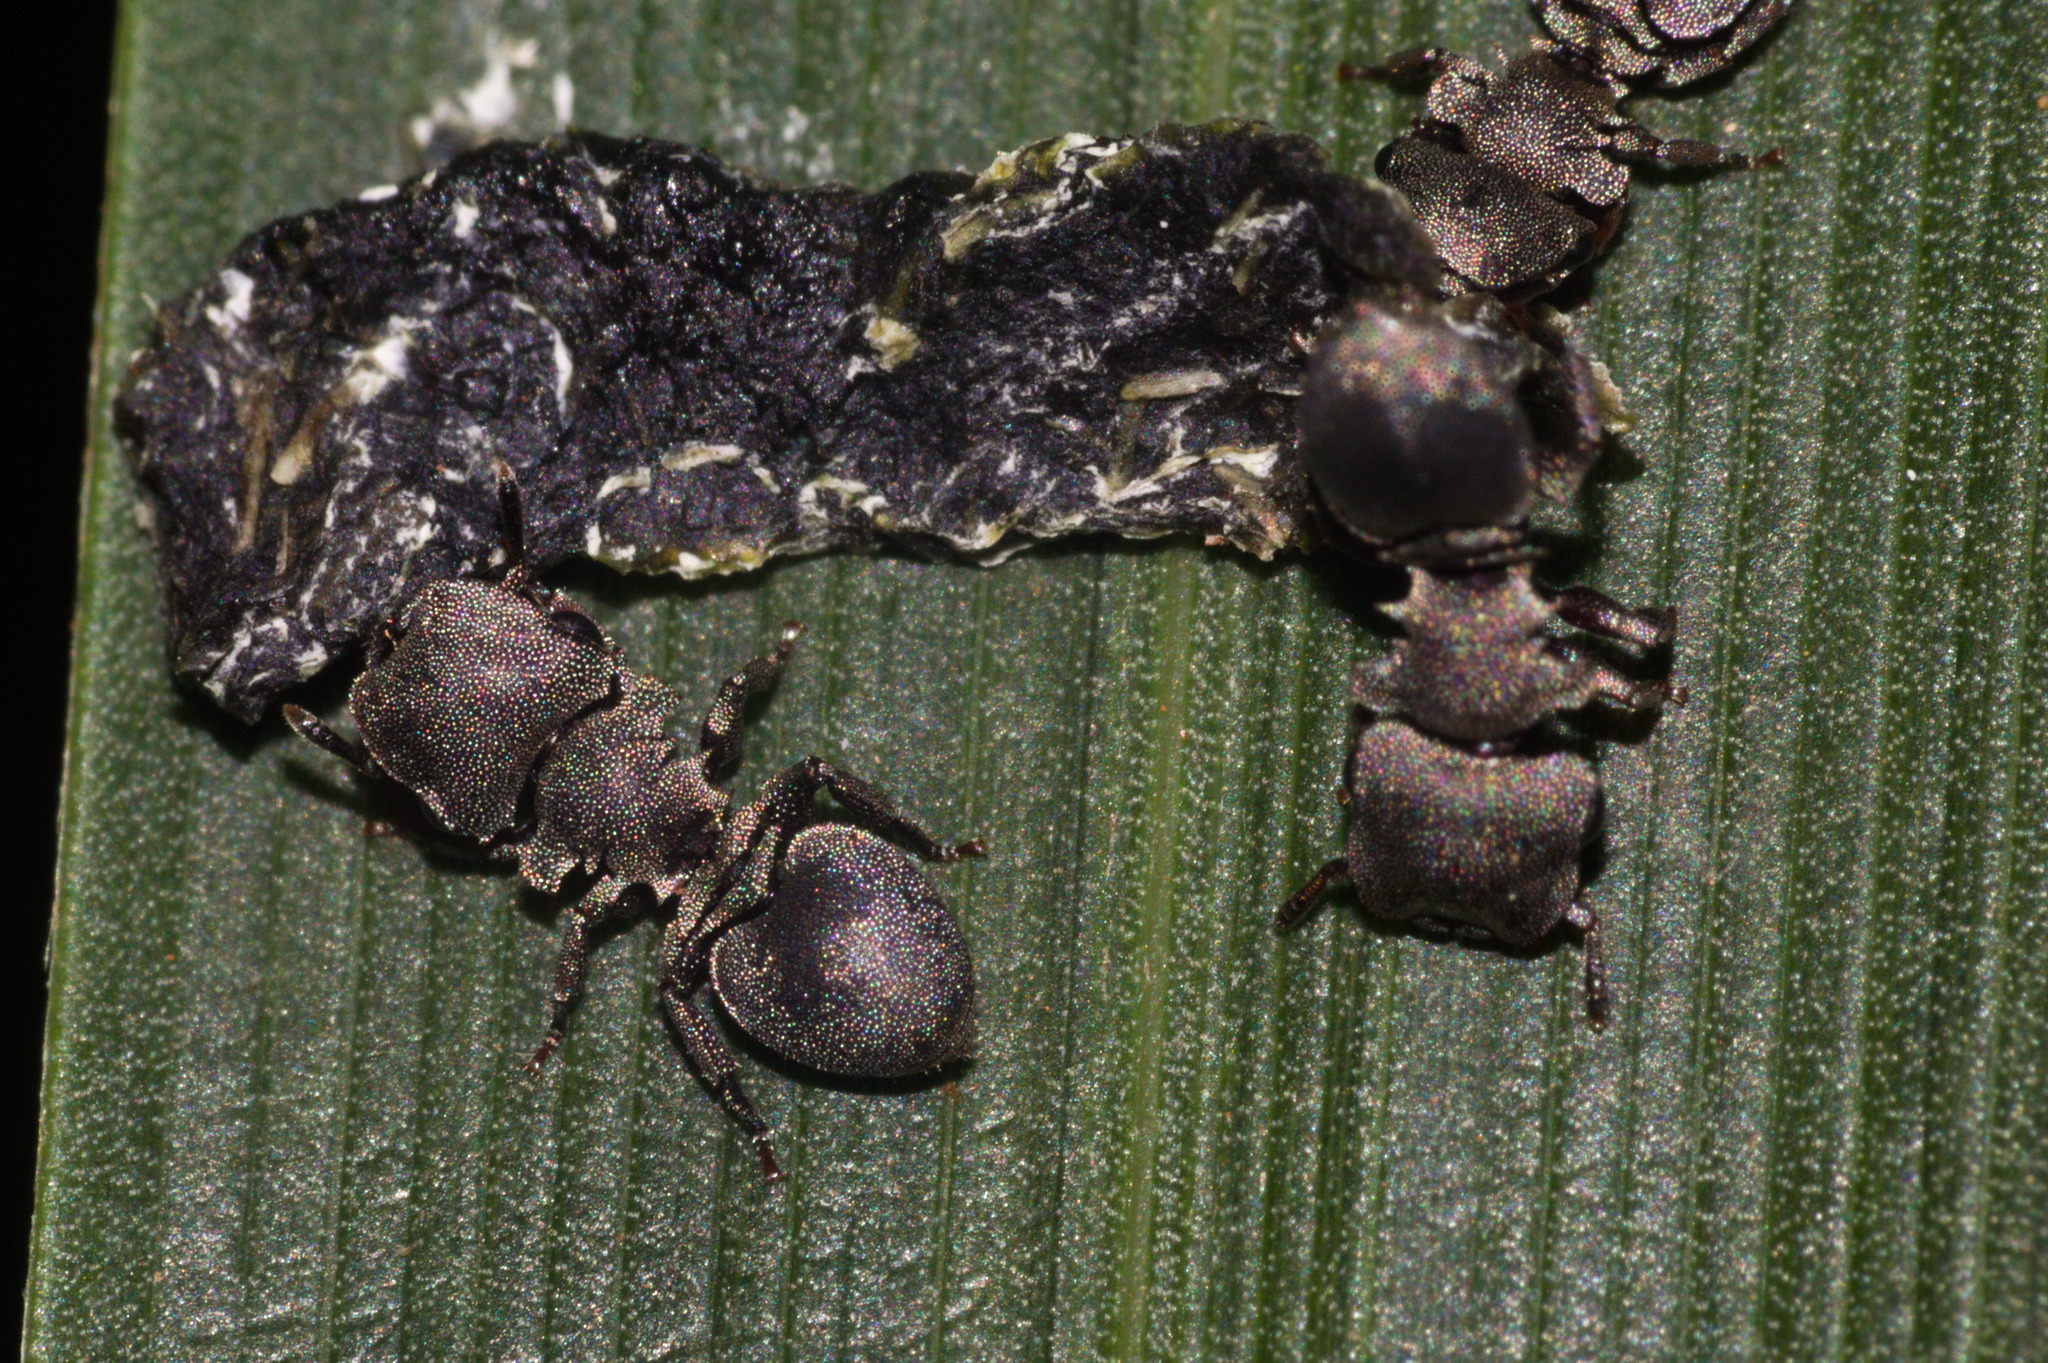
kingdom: Animalia
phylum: Arthropoda
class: Insecta
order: Hymenoptera
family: Formicidae
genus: Cephalotes
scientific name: Cephalotes borgmeieri
